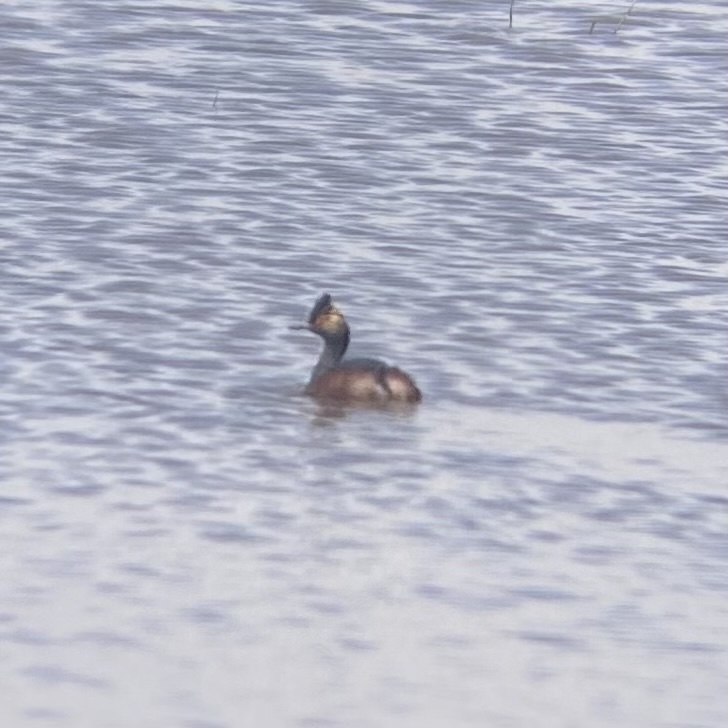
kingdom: Animalia
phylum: Chordata
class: Aves
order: Podicipediformes
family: Podicipedidae
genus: Podiceps
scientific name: Podiceps nigricollis
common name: Black-necked grebe
